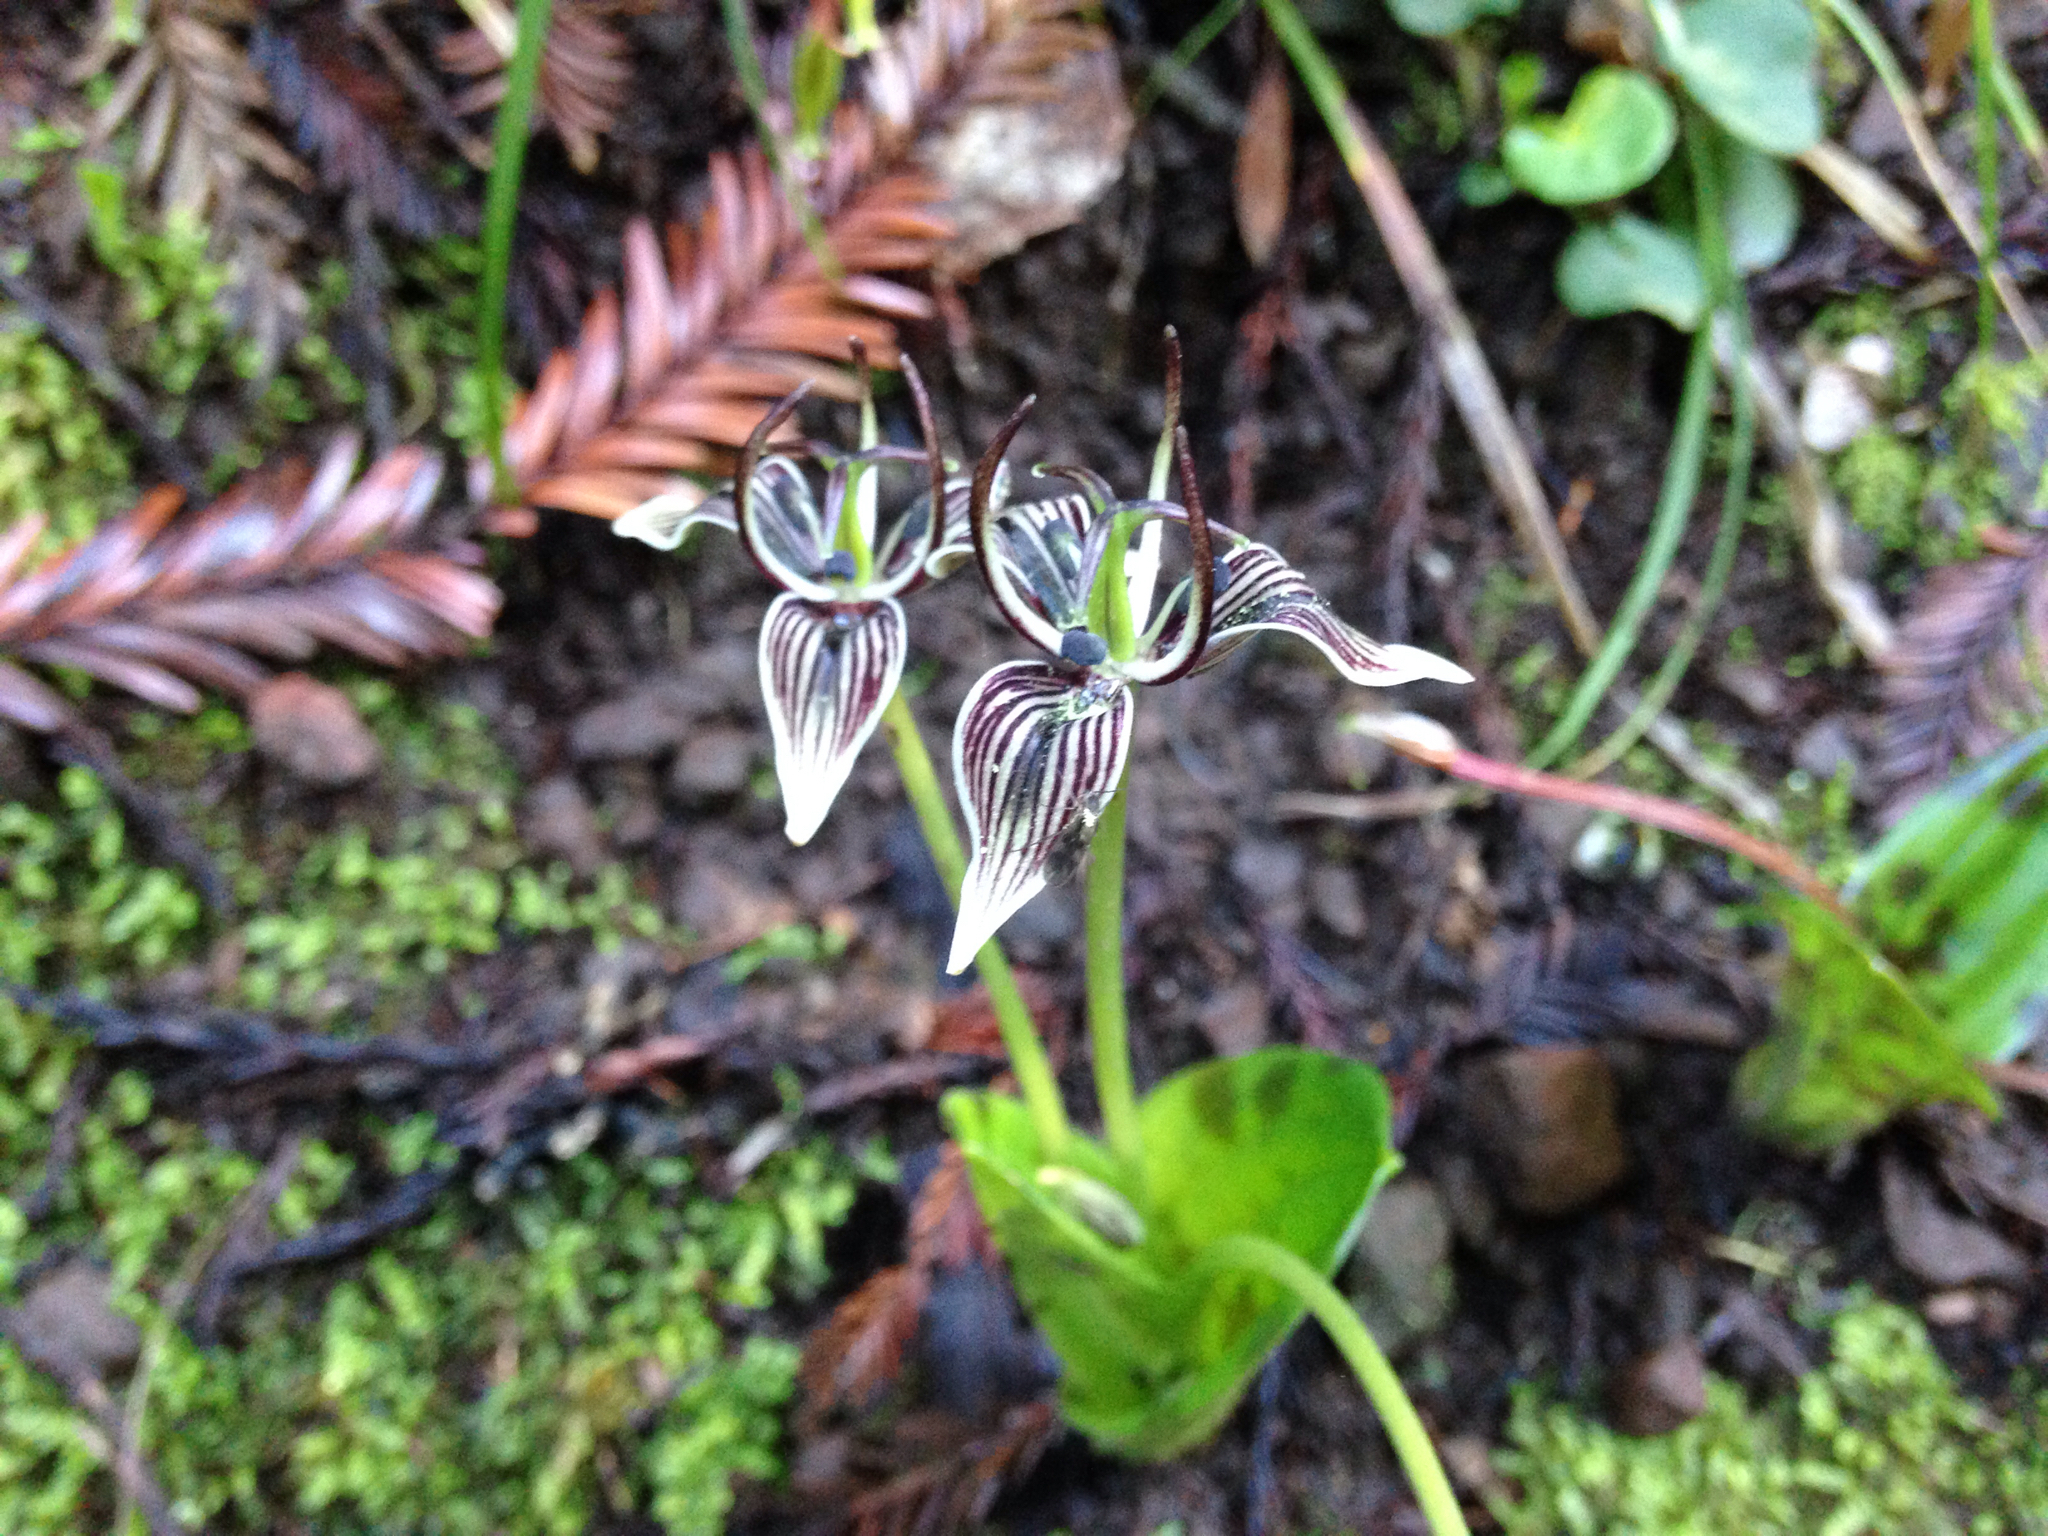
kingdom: Plantae
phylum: Tracheophyta
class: Liliopsida
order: Liliales
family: Liliaceae
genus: Scoliopus
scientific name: Scoliopus bigelovii
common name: Foetid adder's-tongue
